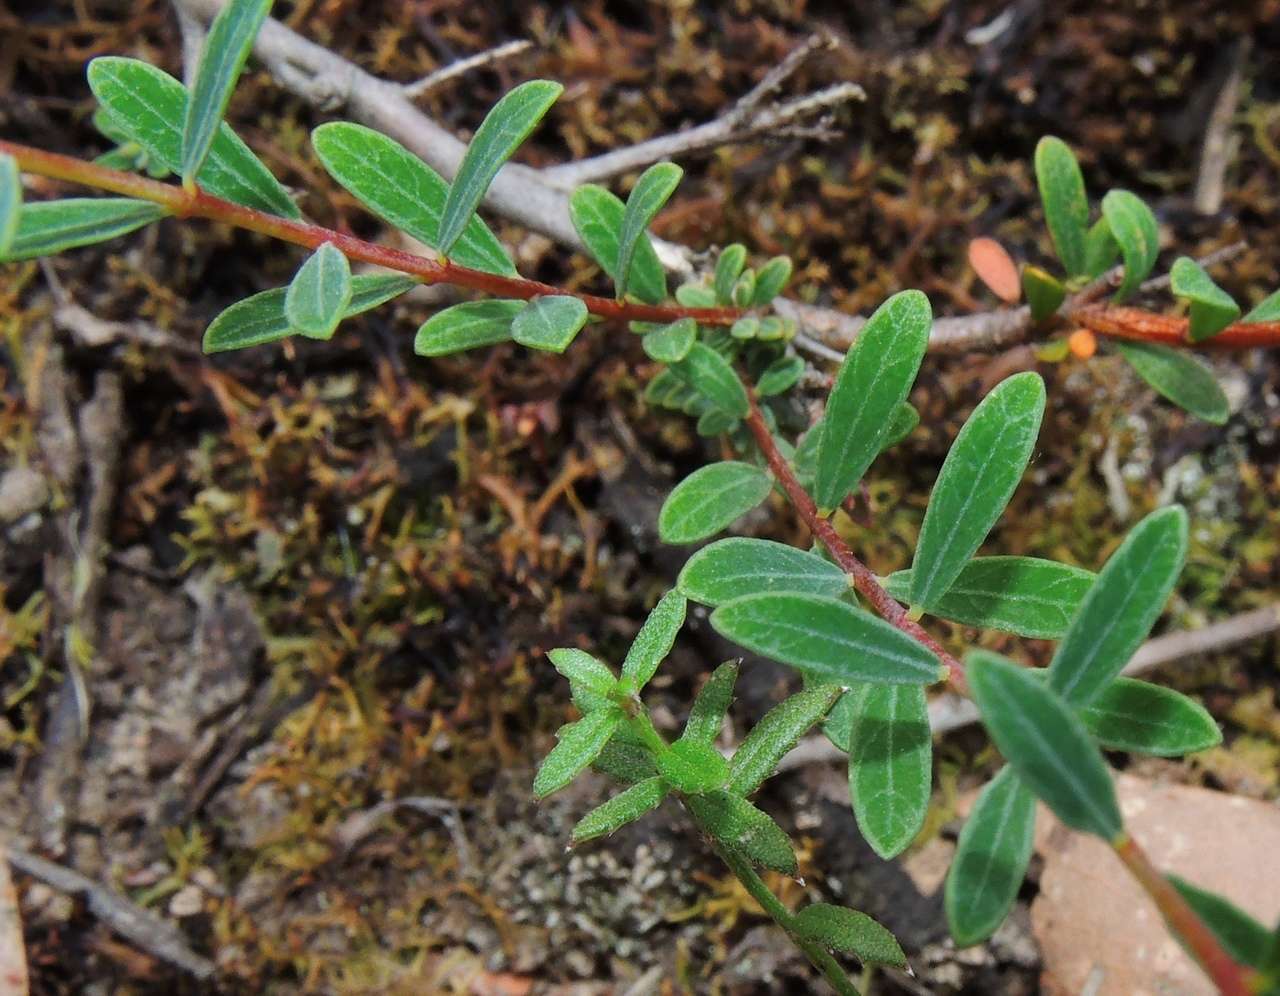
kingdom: Plantae
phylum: Tracheophyta
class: Magnoliopsida
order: Malvales
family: Thymelaeaceae
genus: Pimelea
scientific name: Pimelea linifolia
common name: Queen-of-the-bush
